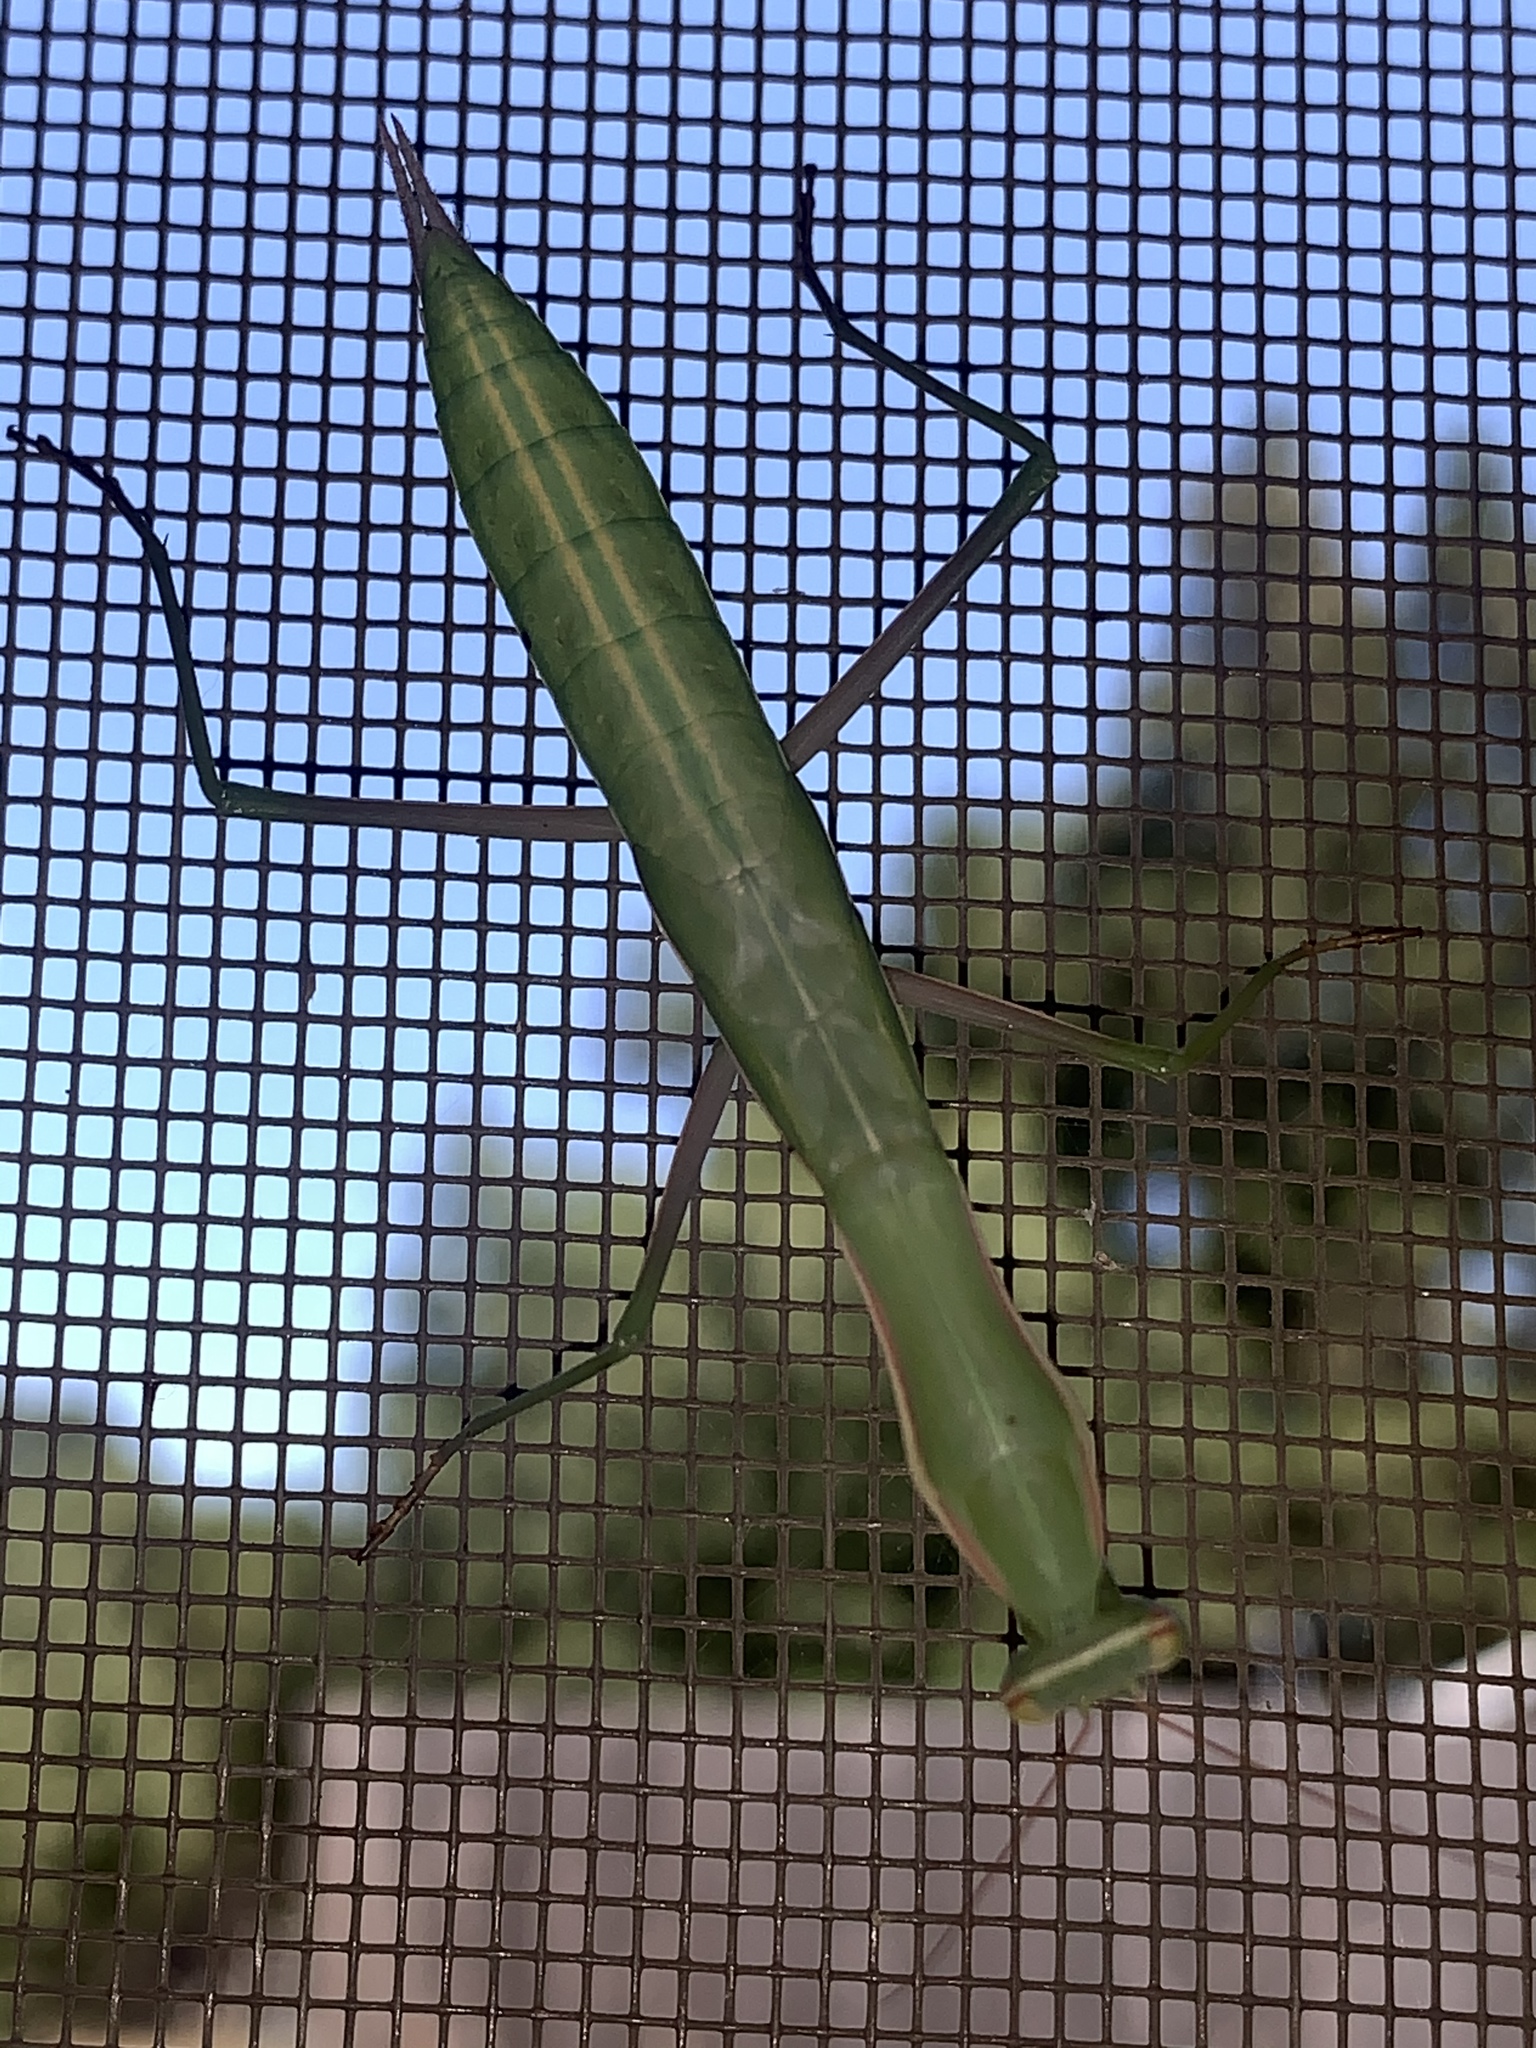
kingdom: Animalia
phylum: Arthropoda
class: Insecta
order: Mantodea
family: Mantidae
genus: Mantis
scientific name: Mantis religiosa
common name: Praying mantis
